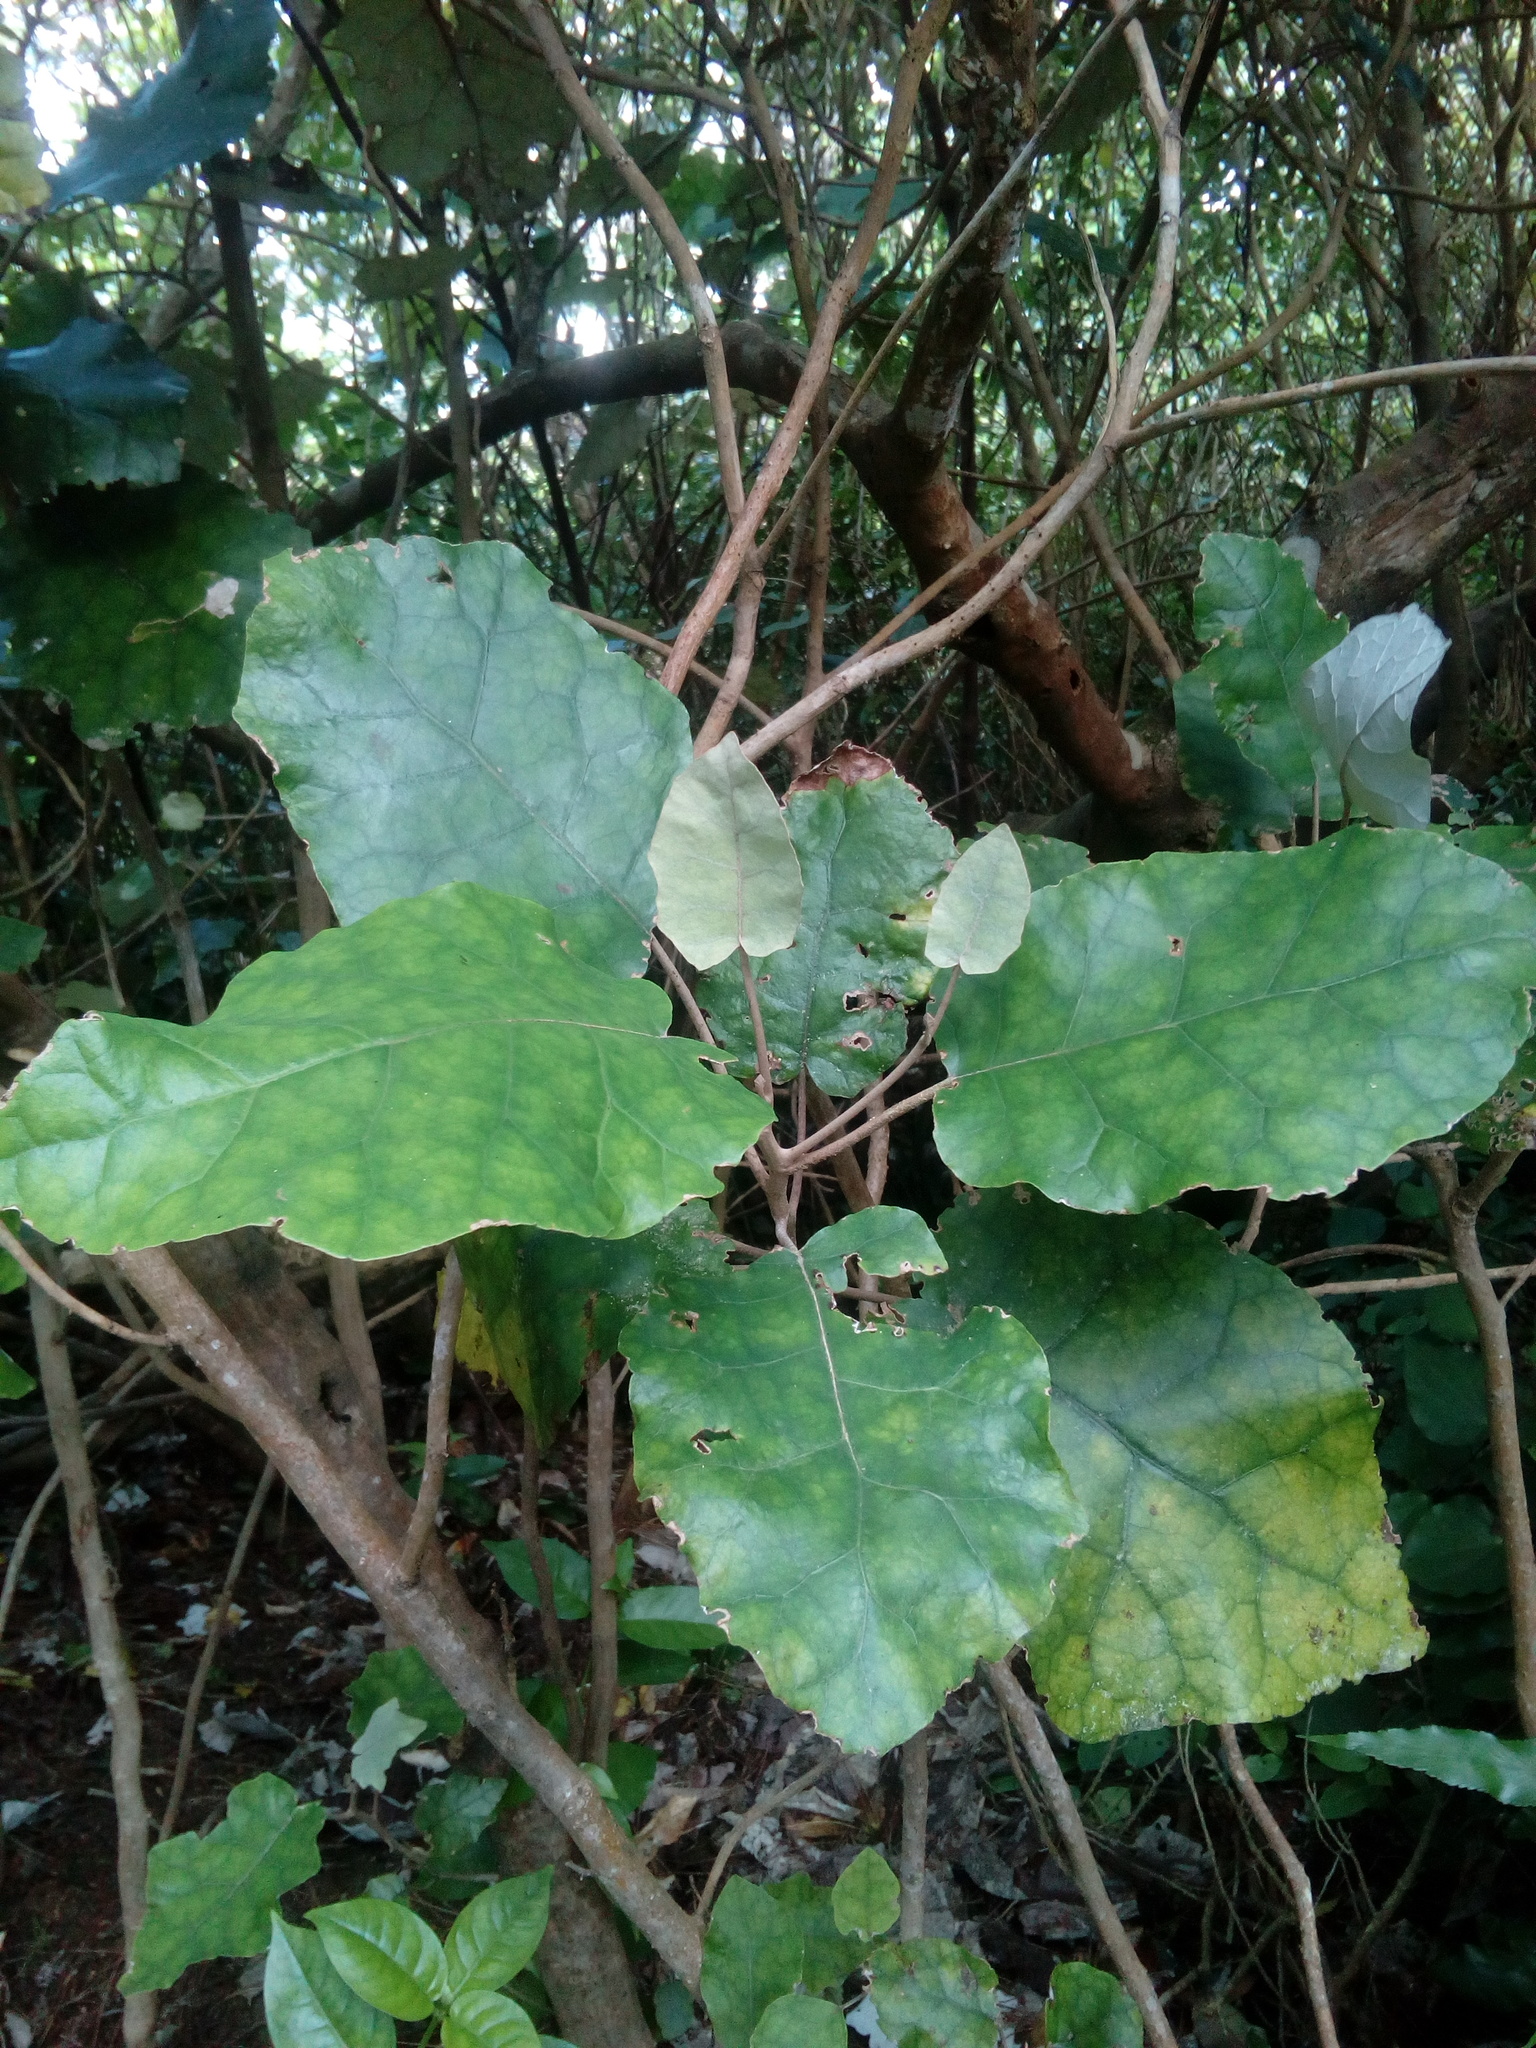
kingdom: Plantae
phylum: Tracheophyta
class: Magnoliopsida
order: Asterales
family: Asteraceae
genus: Brachyglottis
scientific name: Brachyglottis repanda
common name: Hedge ragwort
